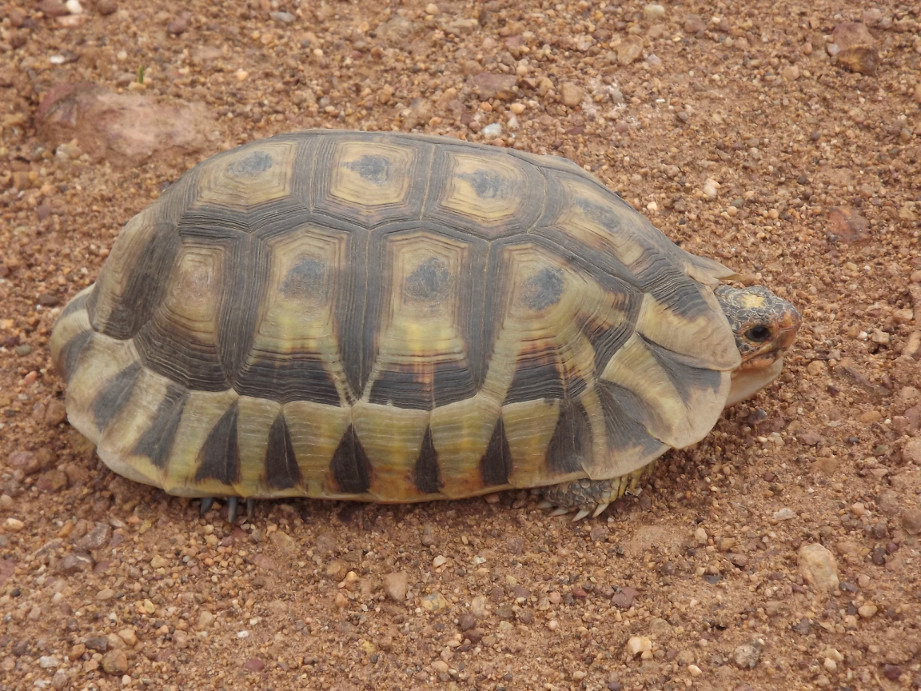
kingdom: Animalia
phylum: Chordata
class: Testudines
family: Testudinidae
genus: Chersina
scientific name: Chersina angulata
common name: South african bowsprit tortoise
